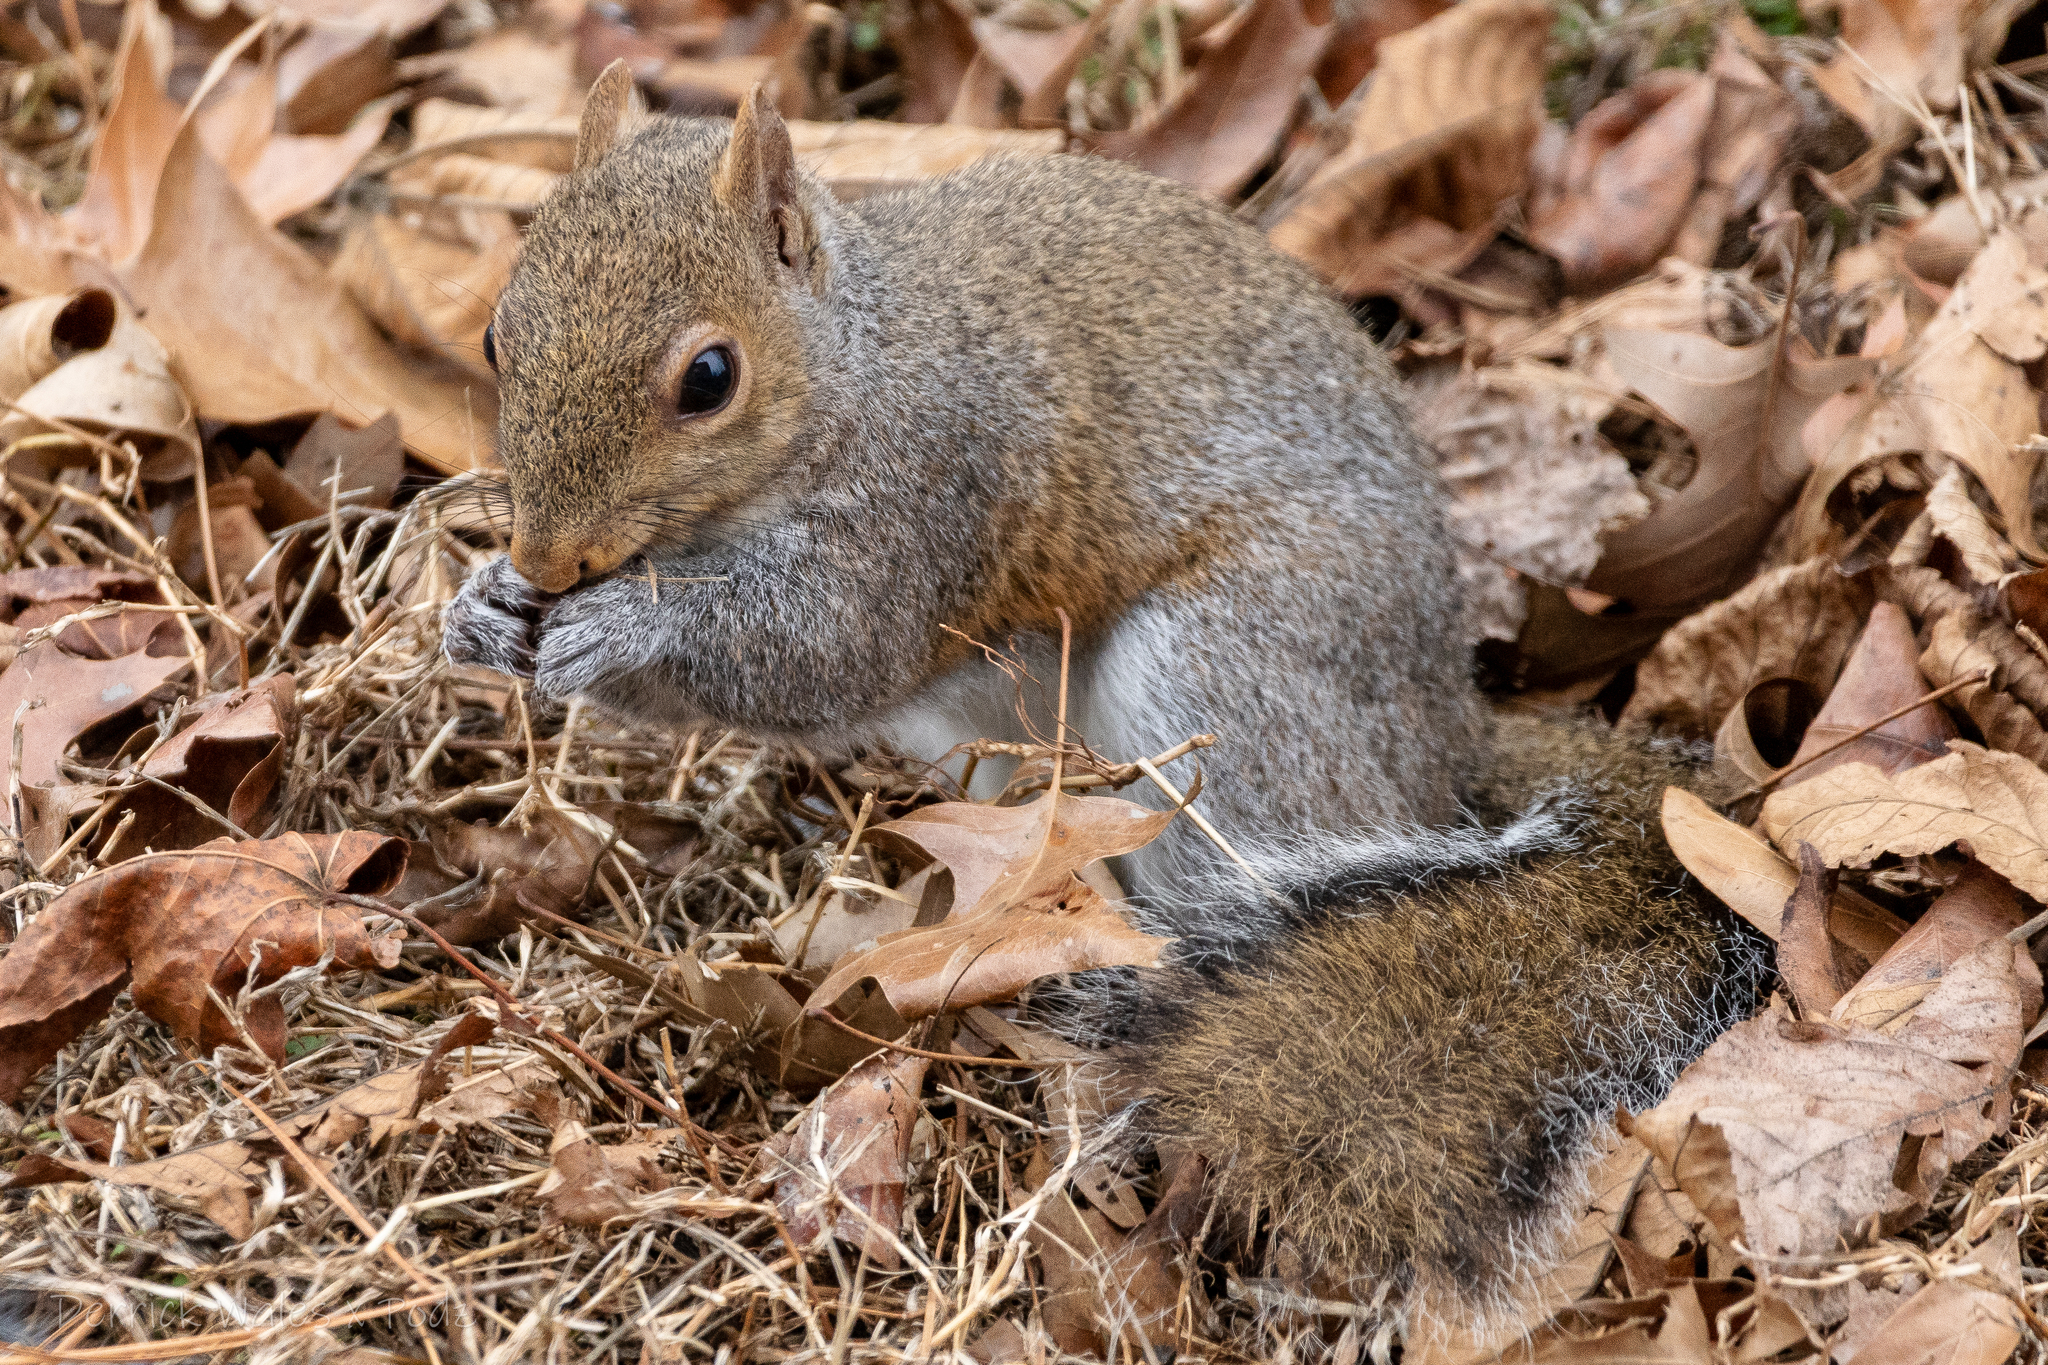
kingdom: Animalia
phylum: Chordata
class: Mammalia
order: Rodentia
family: Sciuridae
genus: Sciurus
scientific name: Sciurus carolinensis
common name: Eastern gray squirrel
